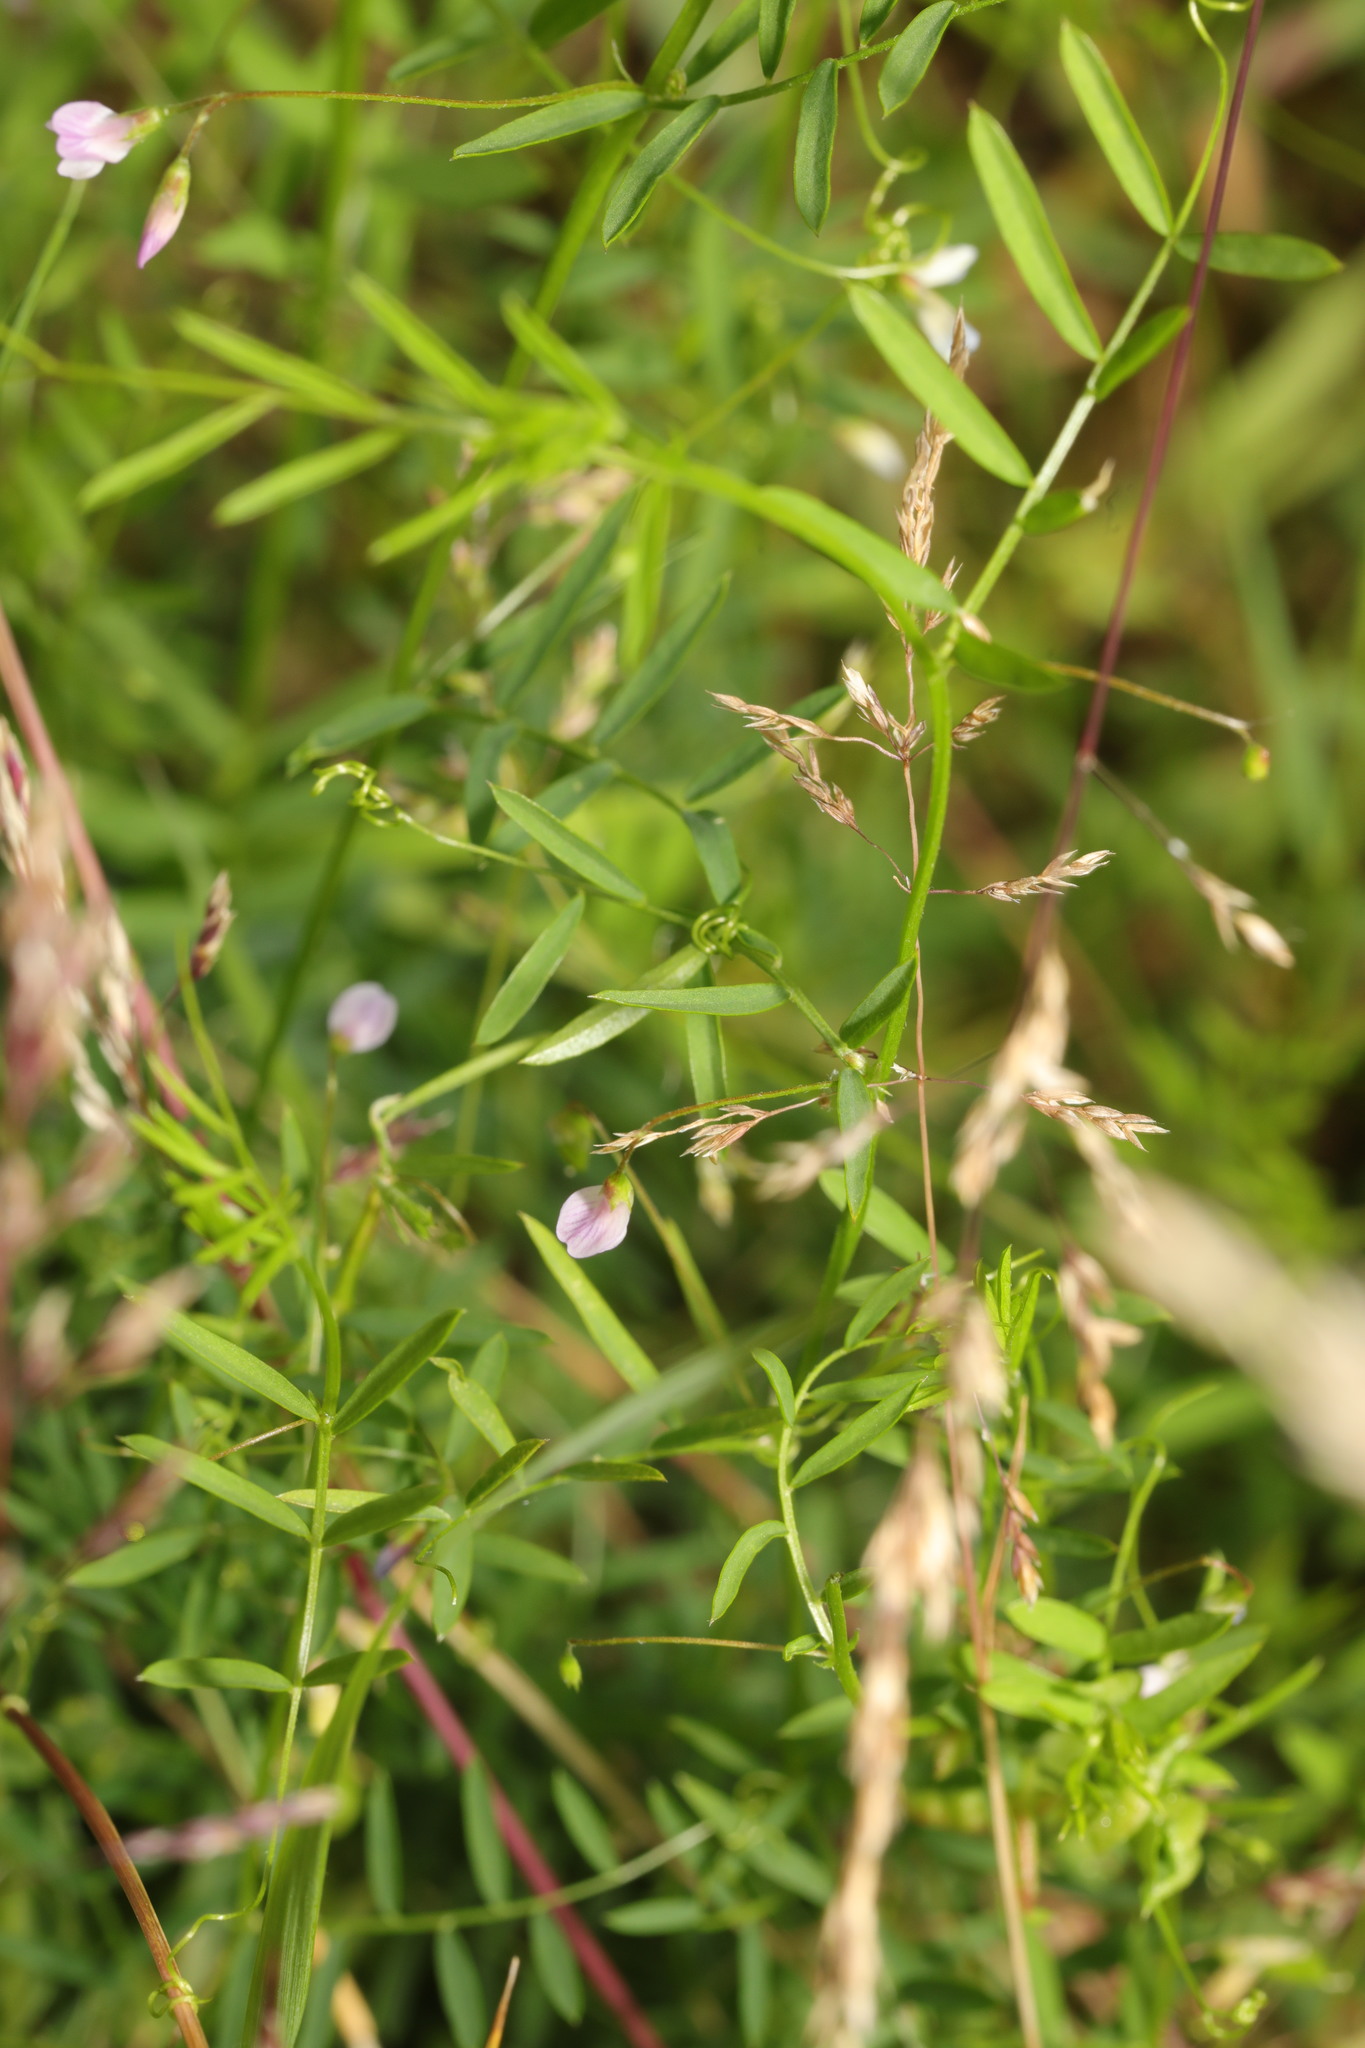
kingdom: Plantae
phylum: Tracheophyta
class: Magnoliopsida
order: Fabales
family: Fabaceae
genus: Vicia
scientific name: Vicia tetrasperma
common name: Smooth tare
